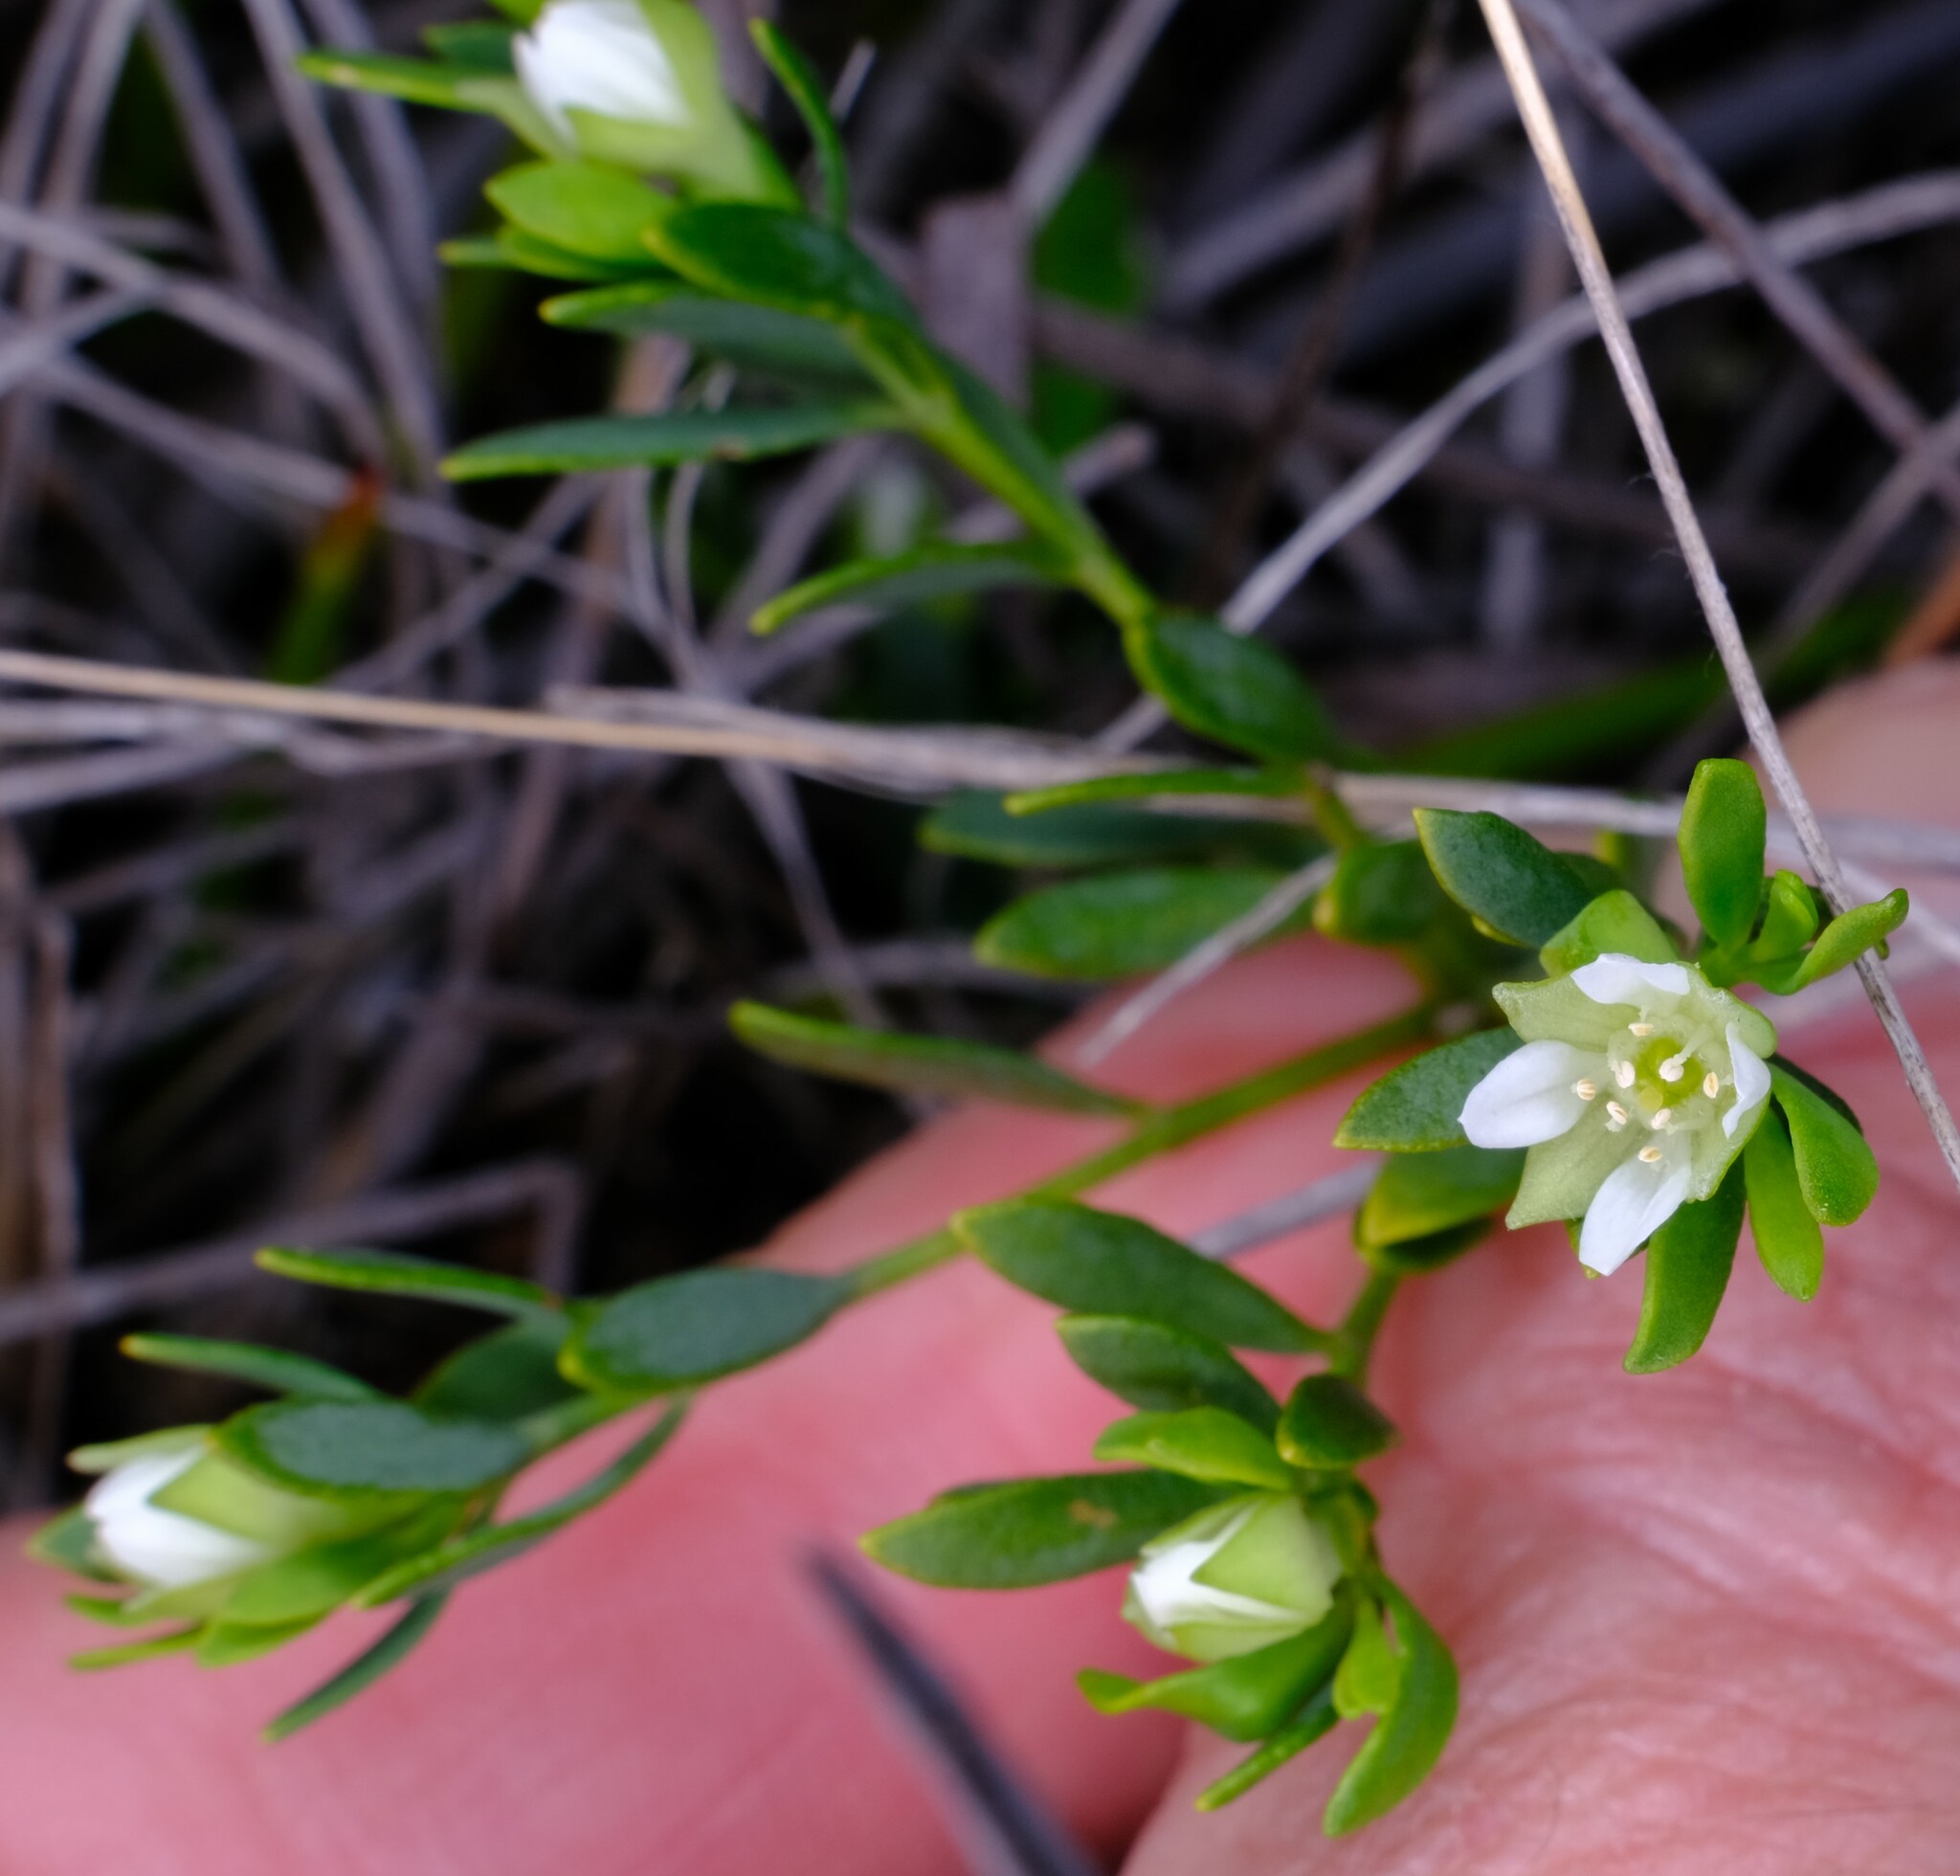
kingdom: Plantae
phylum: Tracheophyta
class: Magnoliopsida
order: Sapindales
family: Rutaceae
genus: Boronia
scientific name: Boronia parviflora
